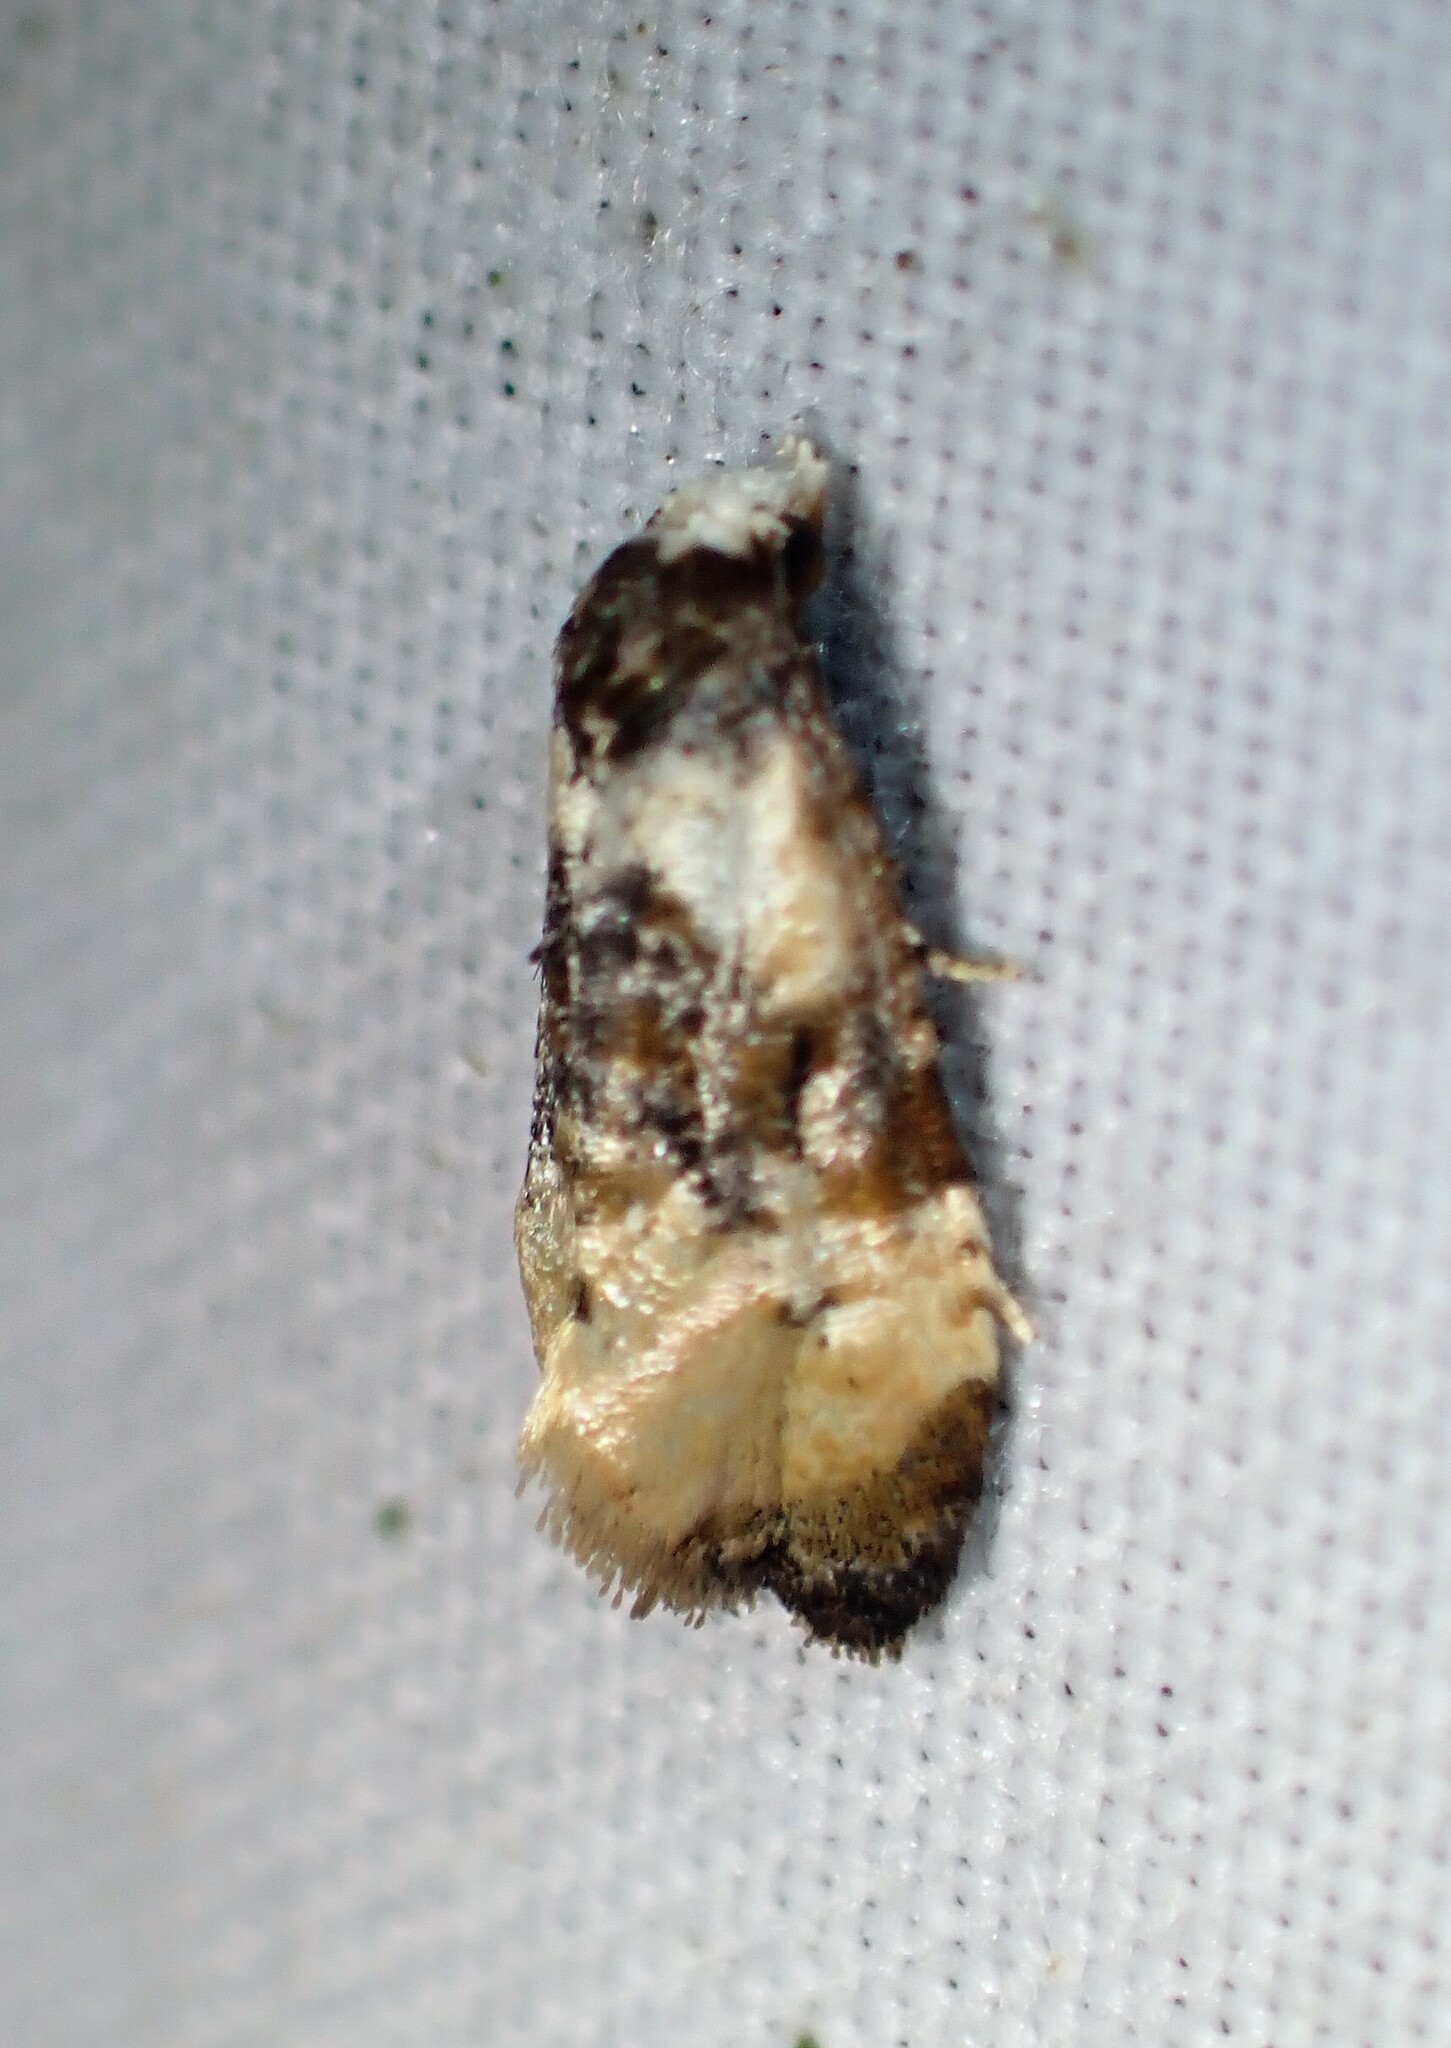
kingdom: Animalia
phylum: Arthropoda
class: Insecta
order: Lepidoptera
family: Tortricidae
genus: Phalonidia
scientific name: Phalonidia memoranda
